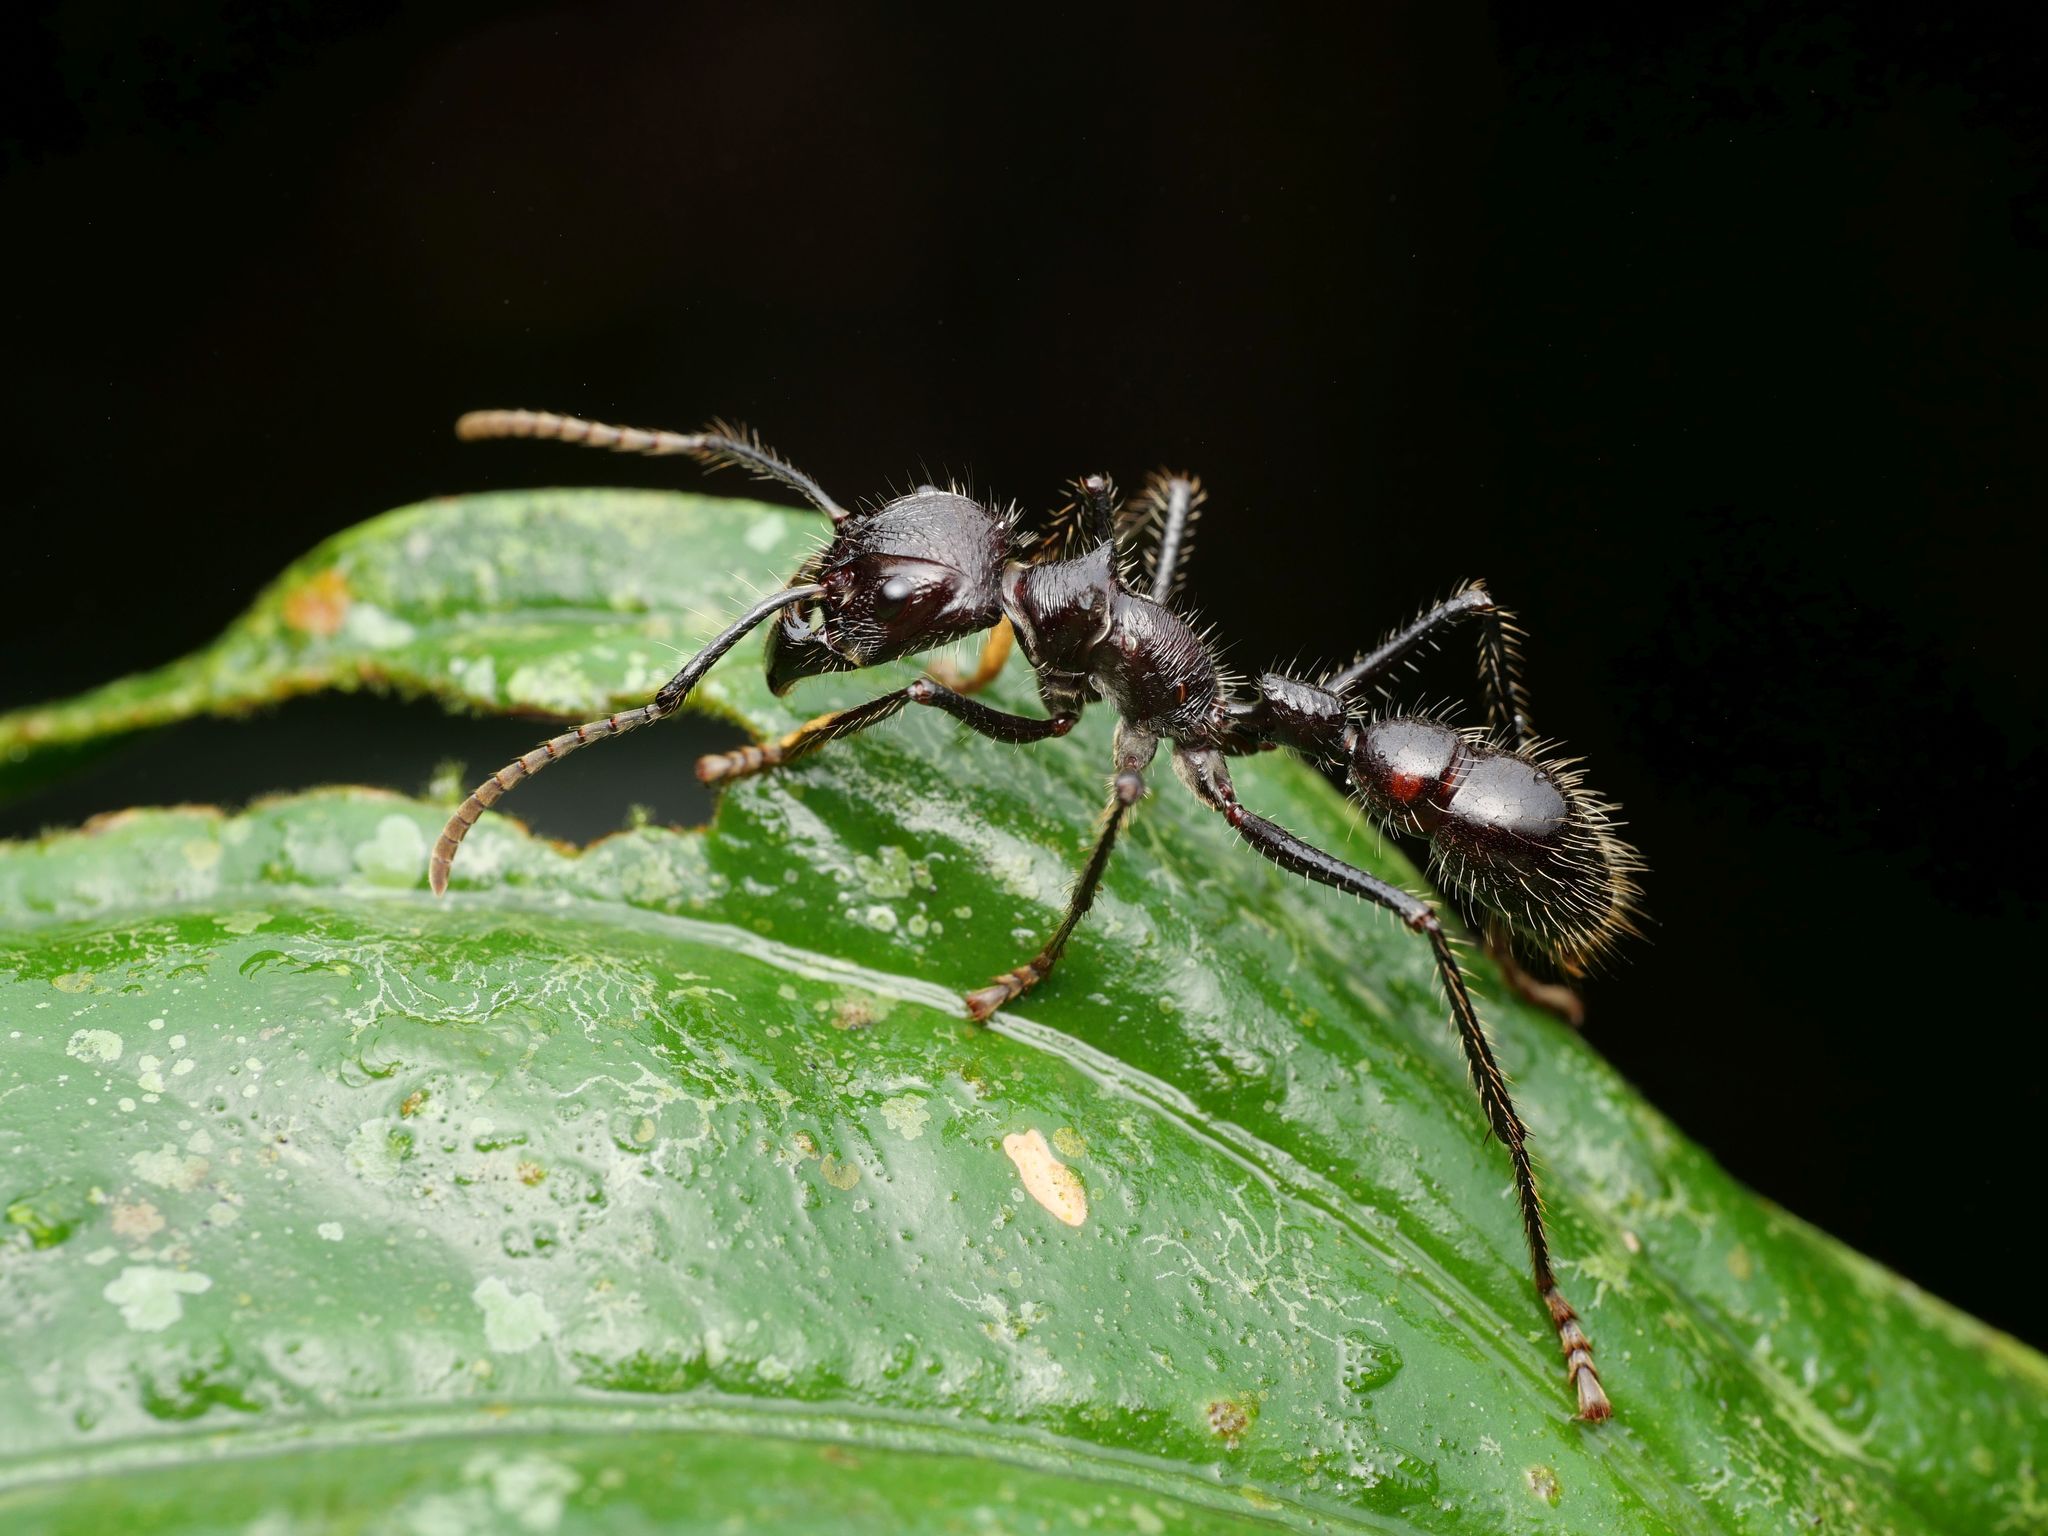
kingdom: Animalia
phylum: Arthropoda
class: Insecta
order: Hymenoptera
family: Formicidae
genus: Paraponera
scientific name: Paraponera clavata
